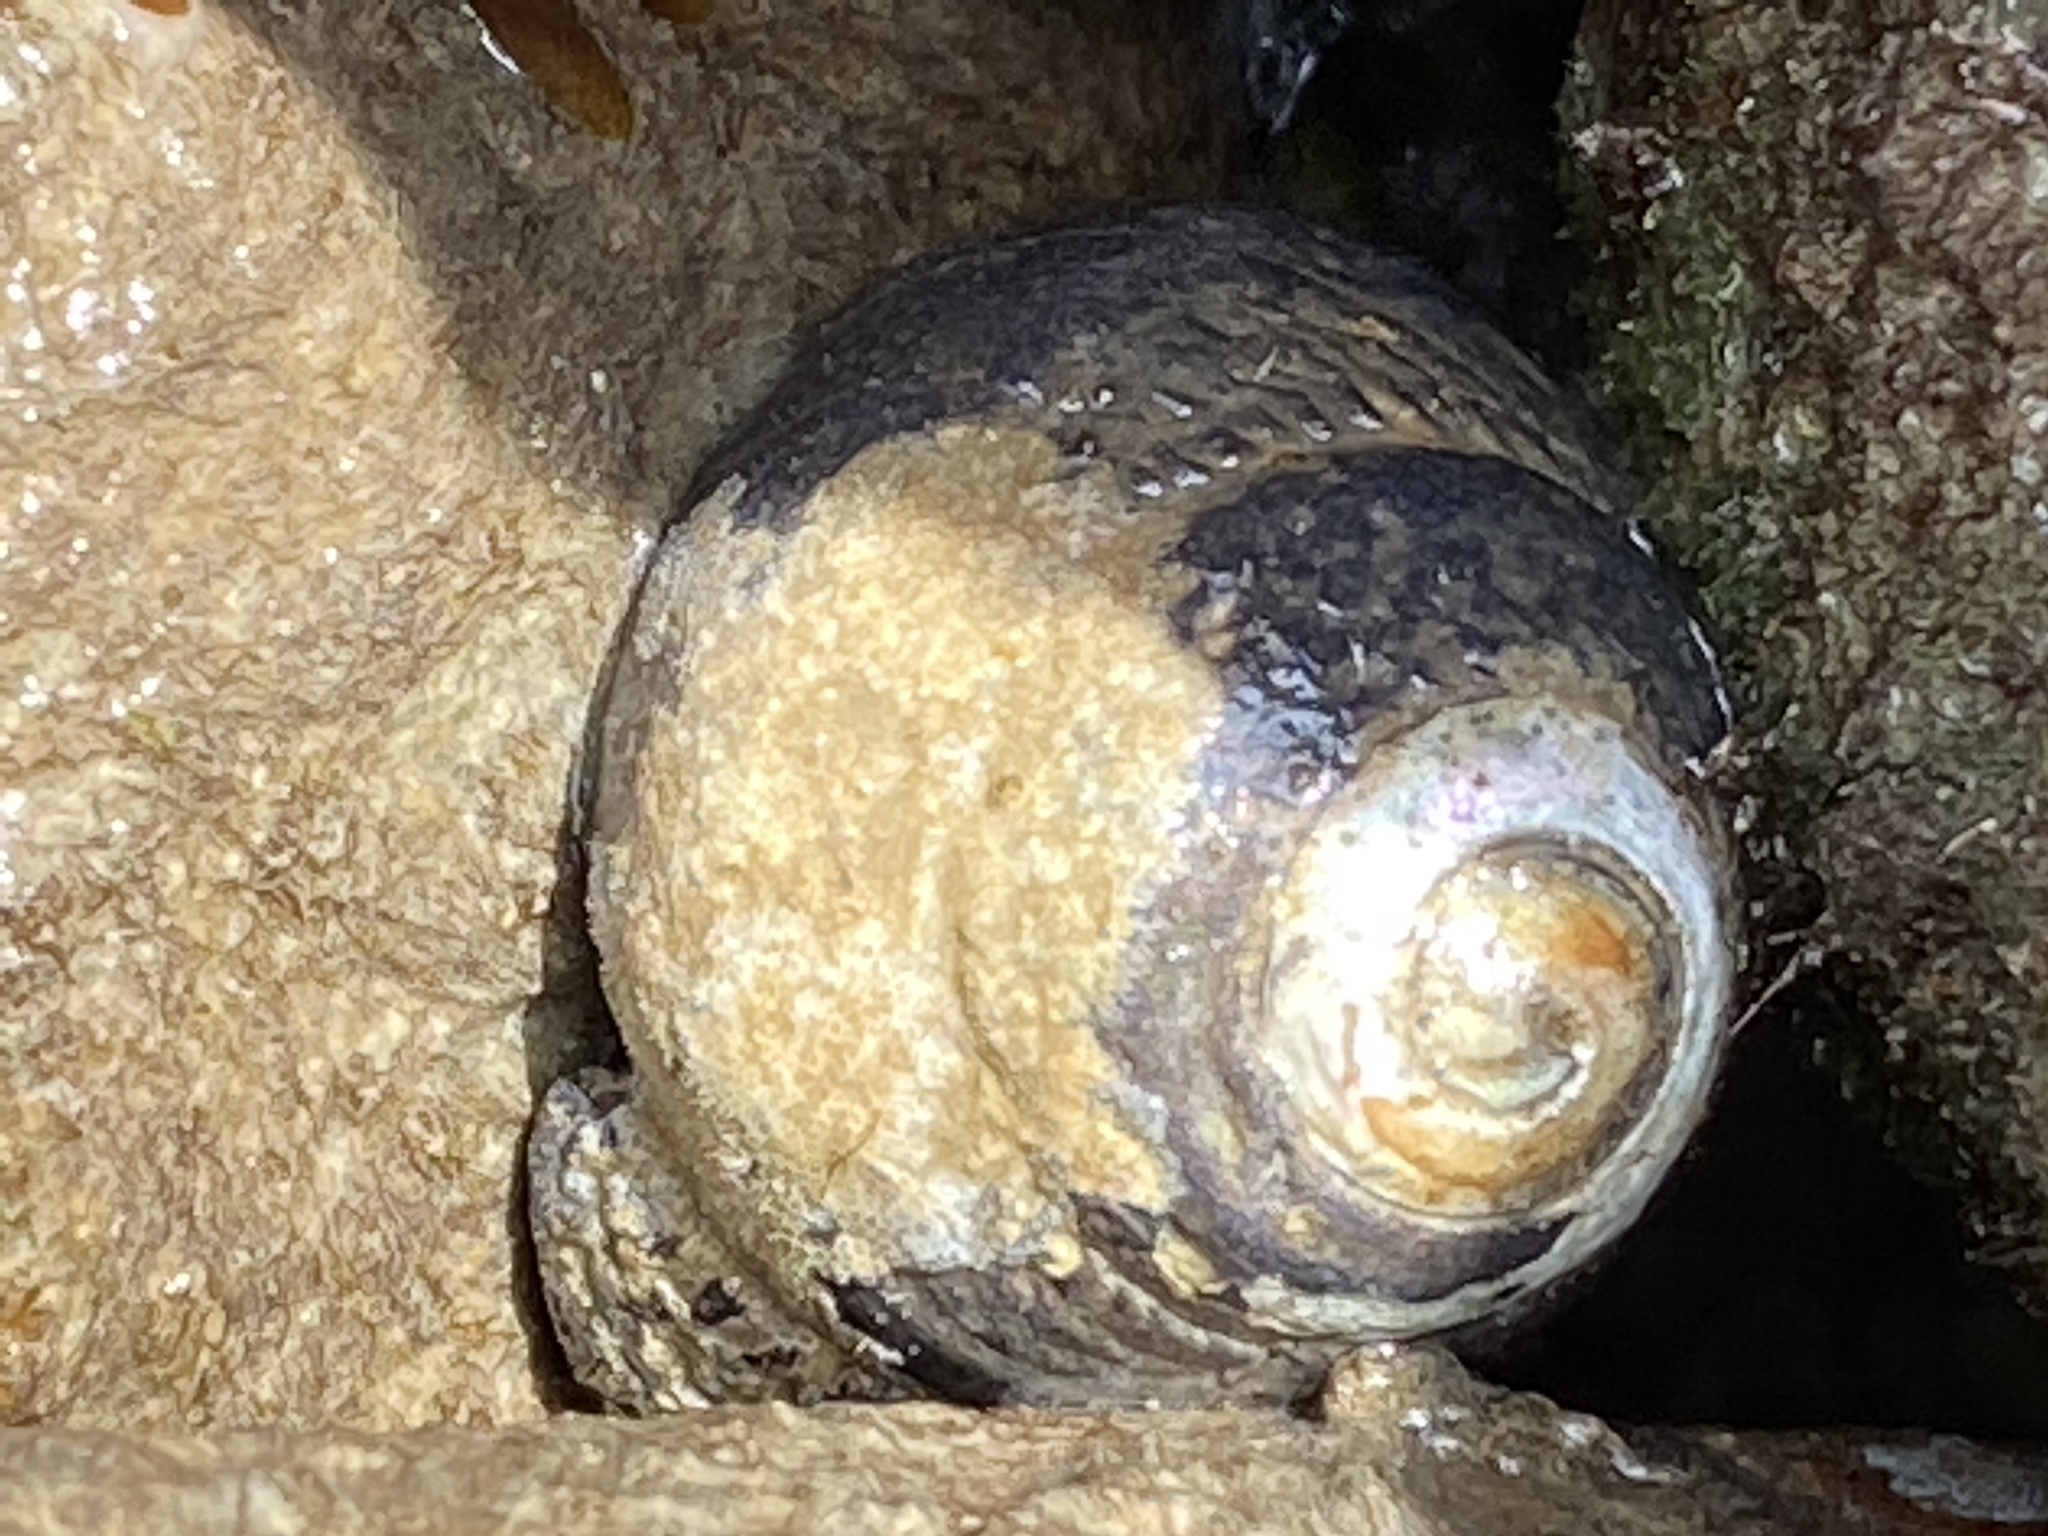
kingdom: Animalia
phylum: Mollusca
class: Gastropoda
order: Trochida
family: Tegulidae
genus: Tegula
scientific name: Tegula funebralis
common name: Black tegula
